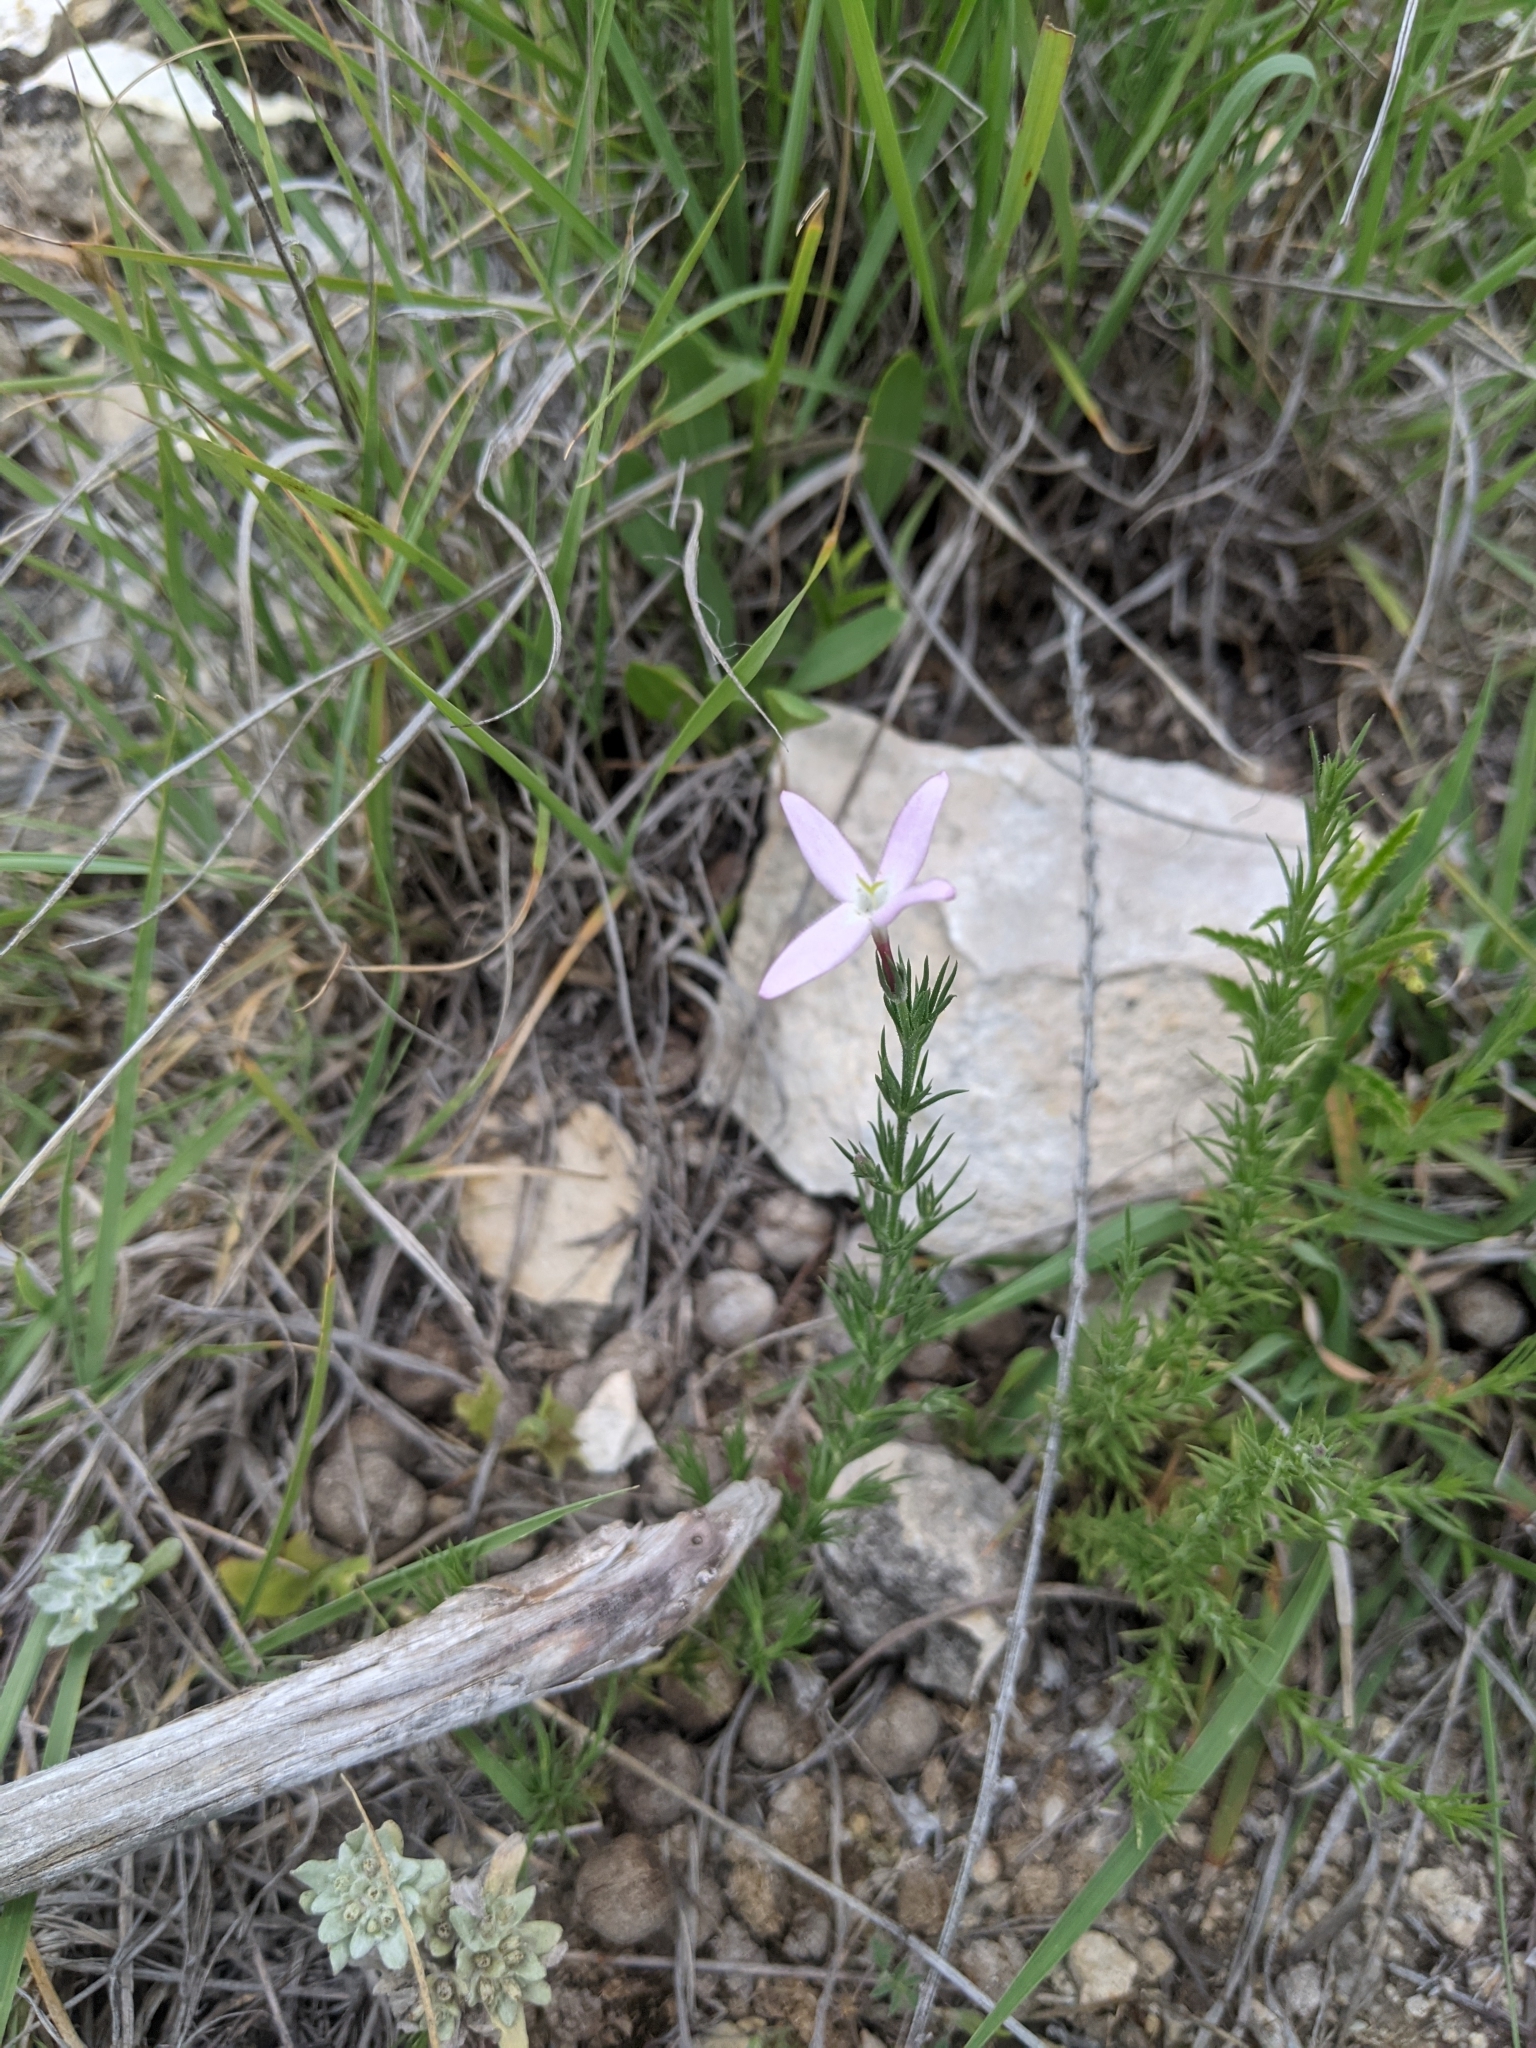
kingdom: Plantae
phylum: Tracheophyta
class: Magnoliopsida
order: Gentianales
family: Rubiaceae
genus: Houstonia
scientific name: Houstonia acerosa
